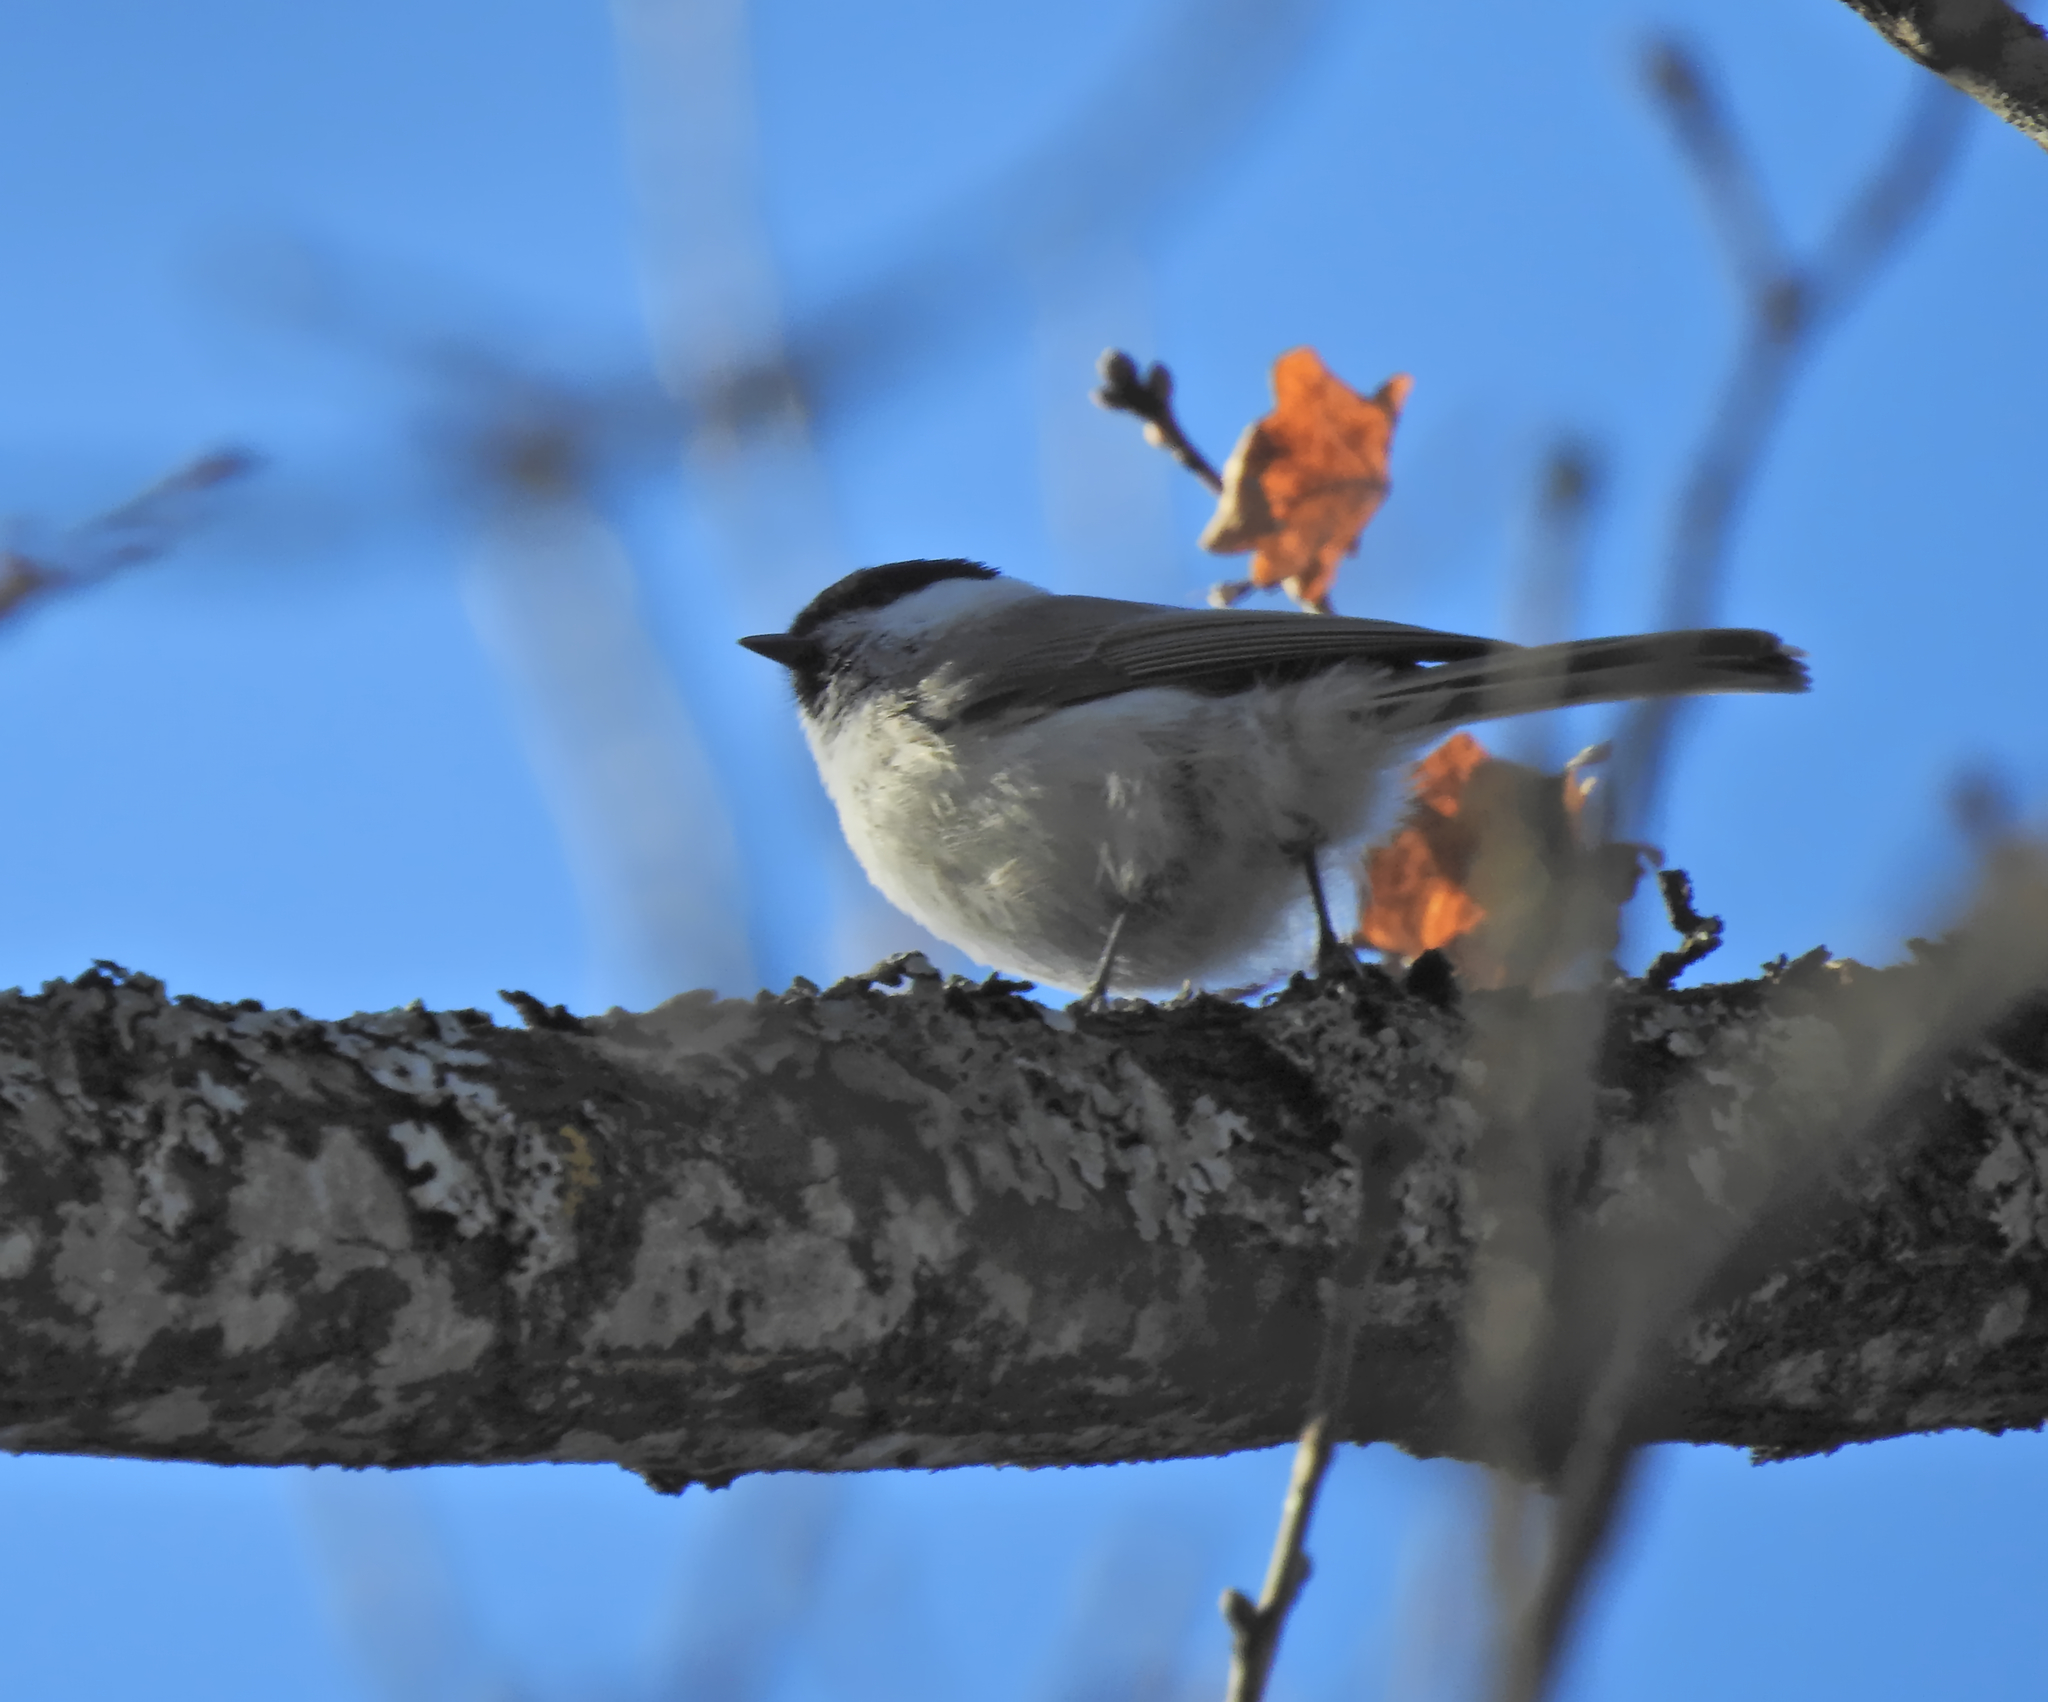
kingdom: Animalia
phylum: Chordata
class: Aves
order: Passeriformes
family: Paridae
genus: Poecile
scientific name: Poecile palustris
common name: Marsh tit
